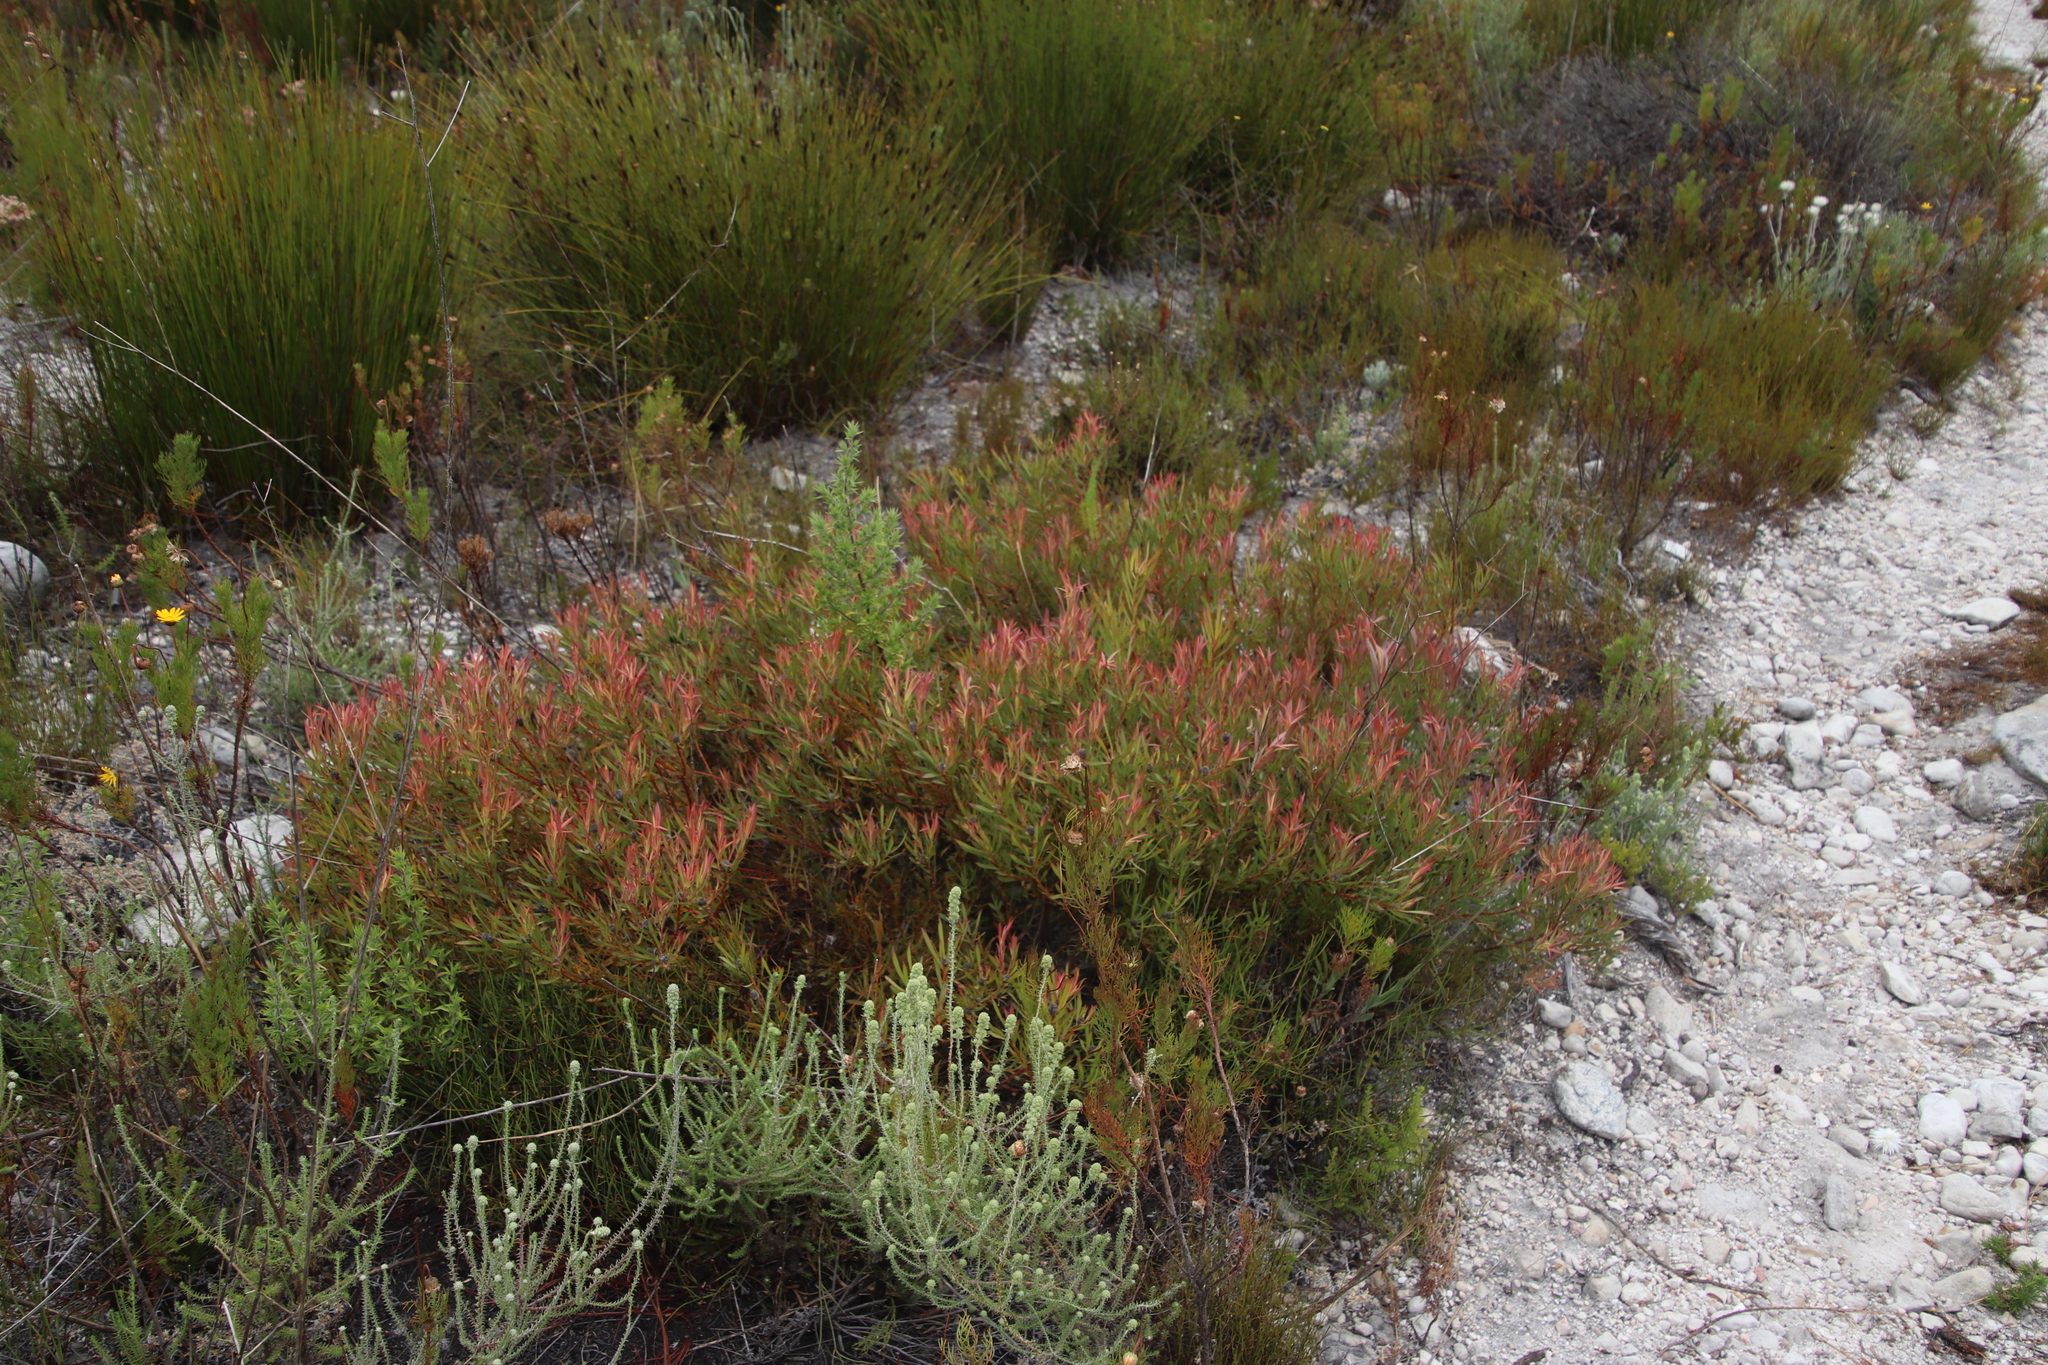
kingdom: Plantae
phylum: Tracheophyta
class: Magnoliopsida
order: Proteales
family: Proteaceae
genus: Leucadendron
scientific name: Leucadendron salignum
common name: Common sunshine conebush
